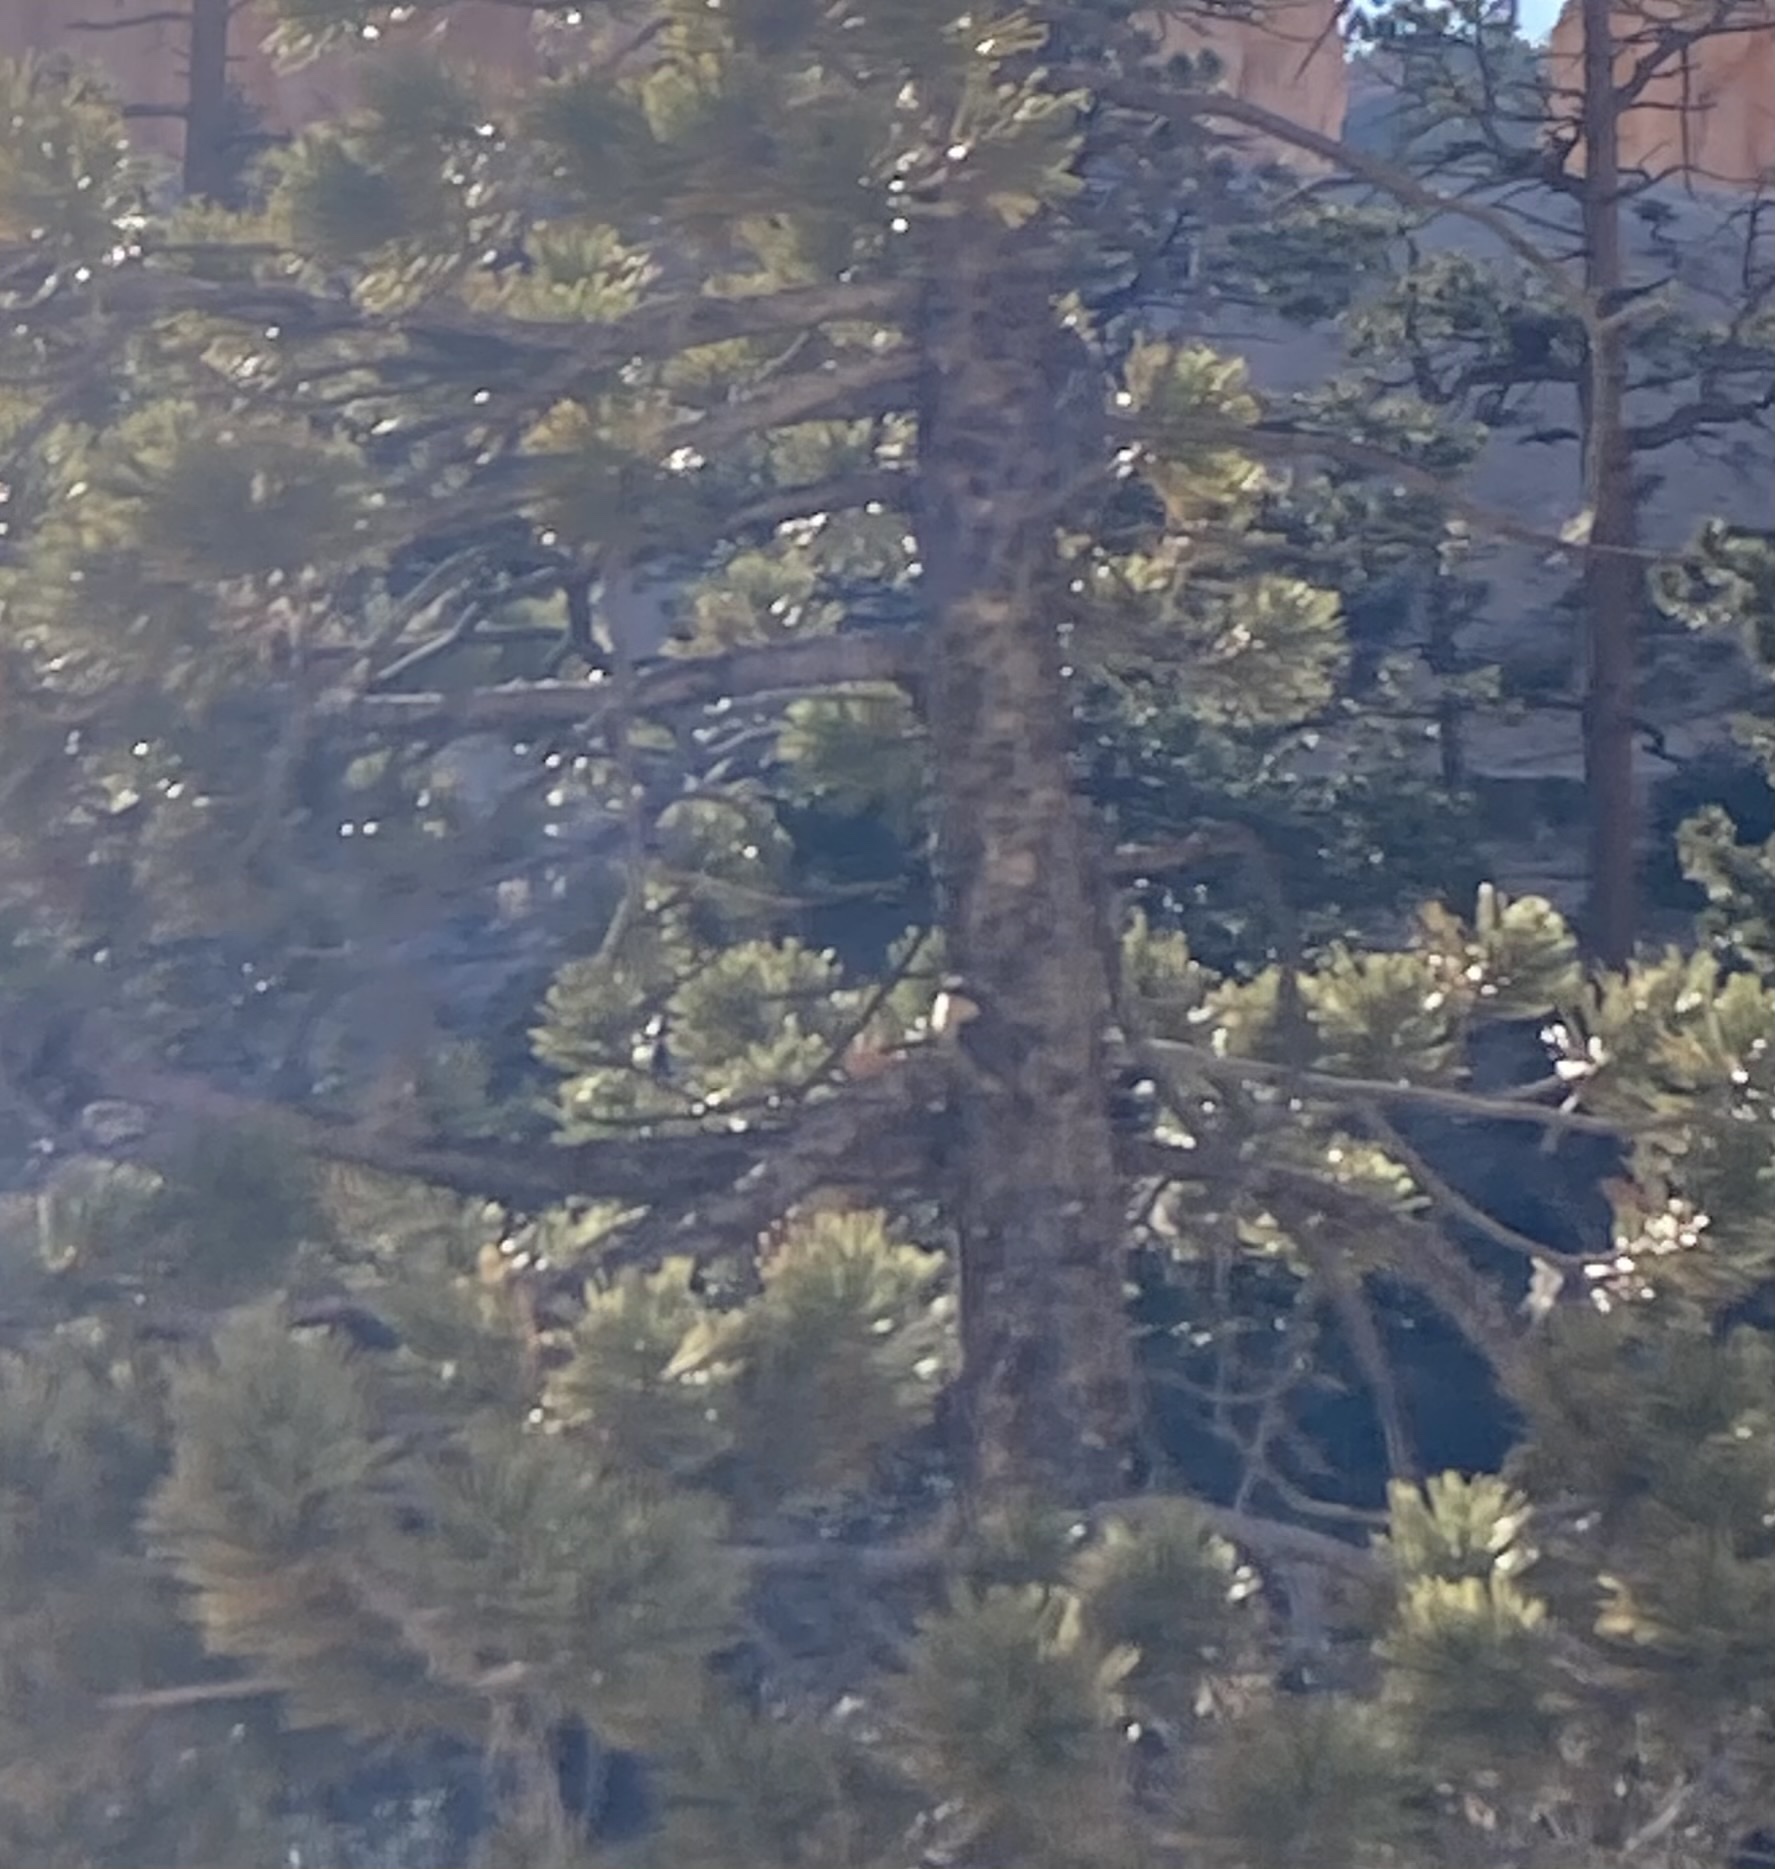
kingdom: Animalia
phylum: Chordata
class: Aves
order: Passeriformes
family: Sittidae
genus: Sitta
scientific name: Sitta pygmaea
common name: Pygmy nuthatch
